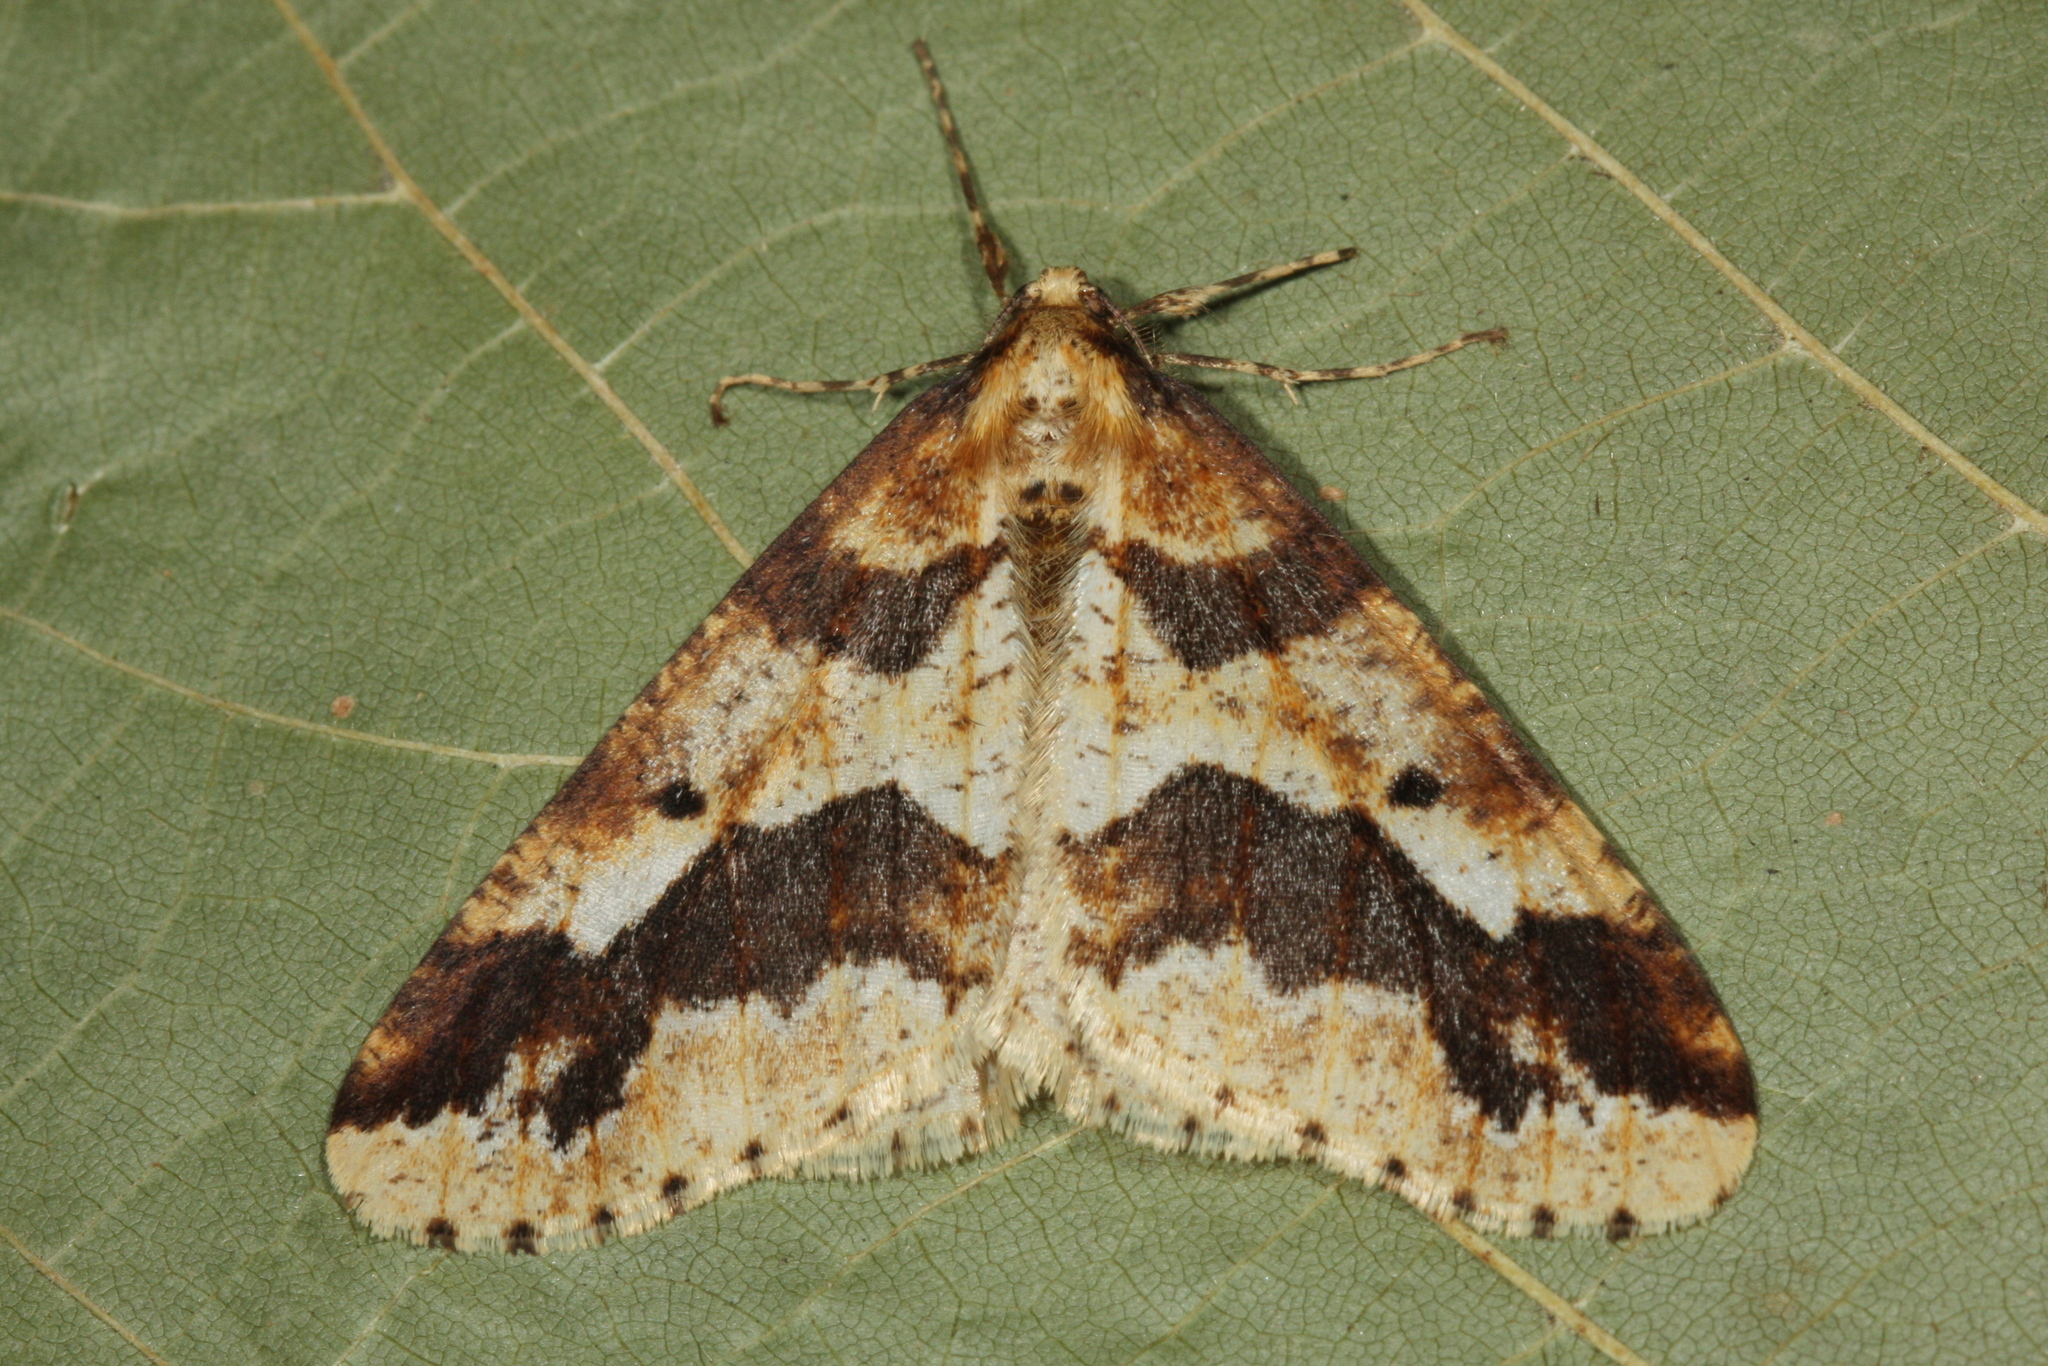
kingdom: Animalia
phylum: Arthropoda
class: Insecta
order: Lepidoptera
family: Geometridae
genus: Erannis
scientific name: Erannis defoliaria
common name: Mottled umber
